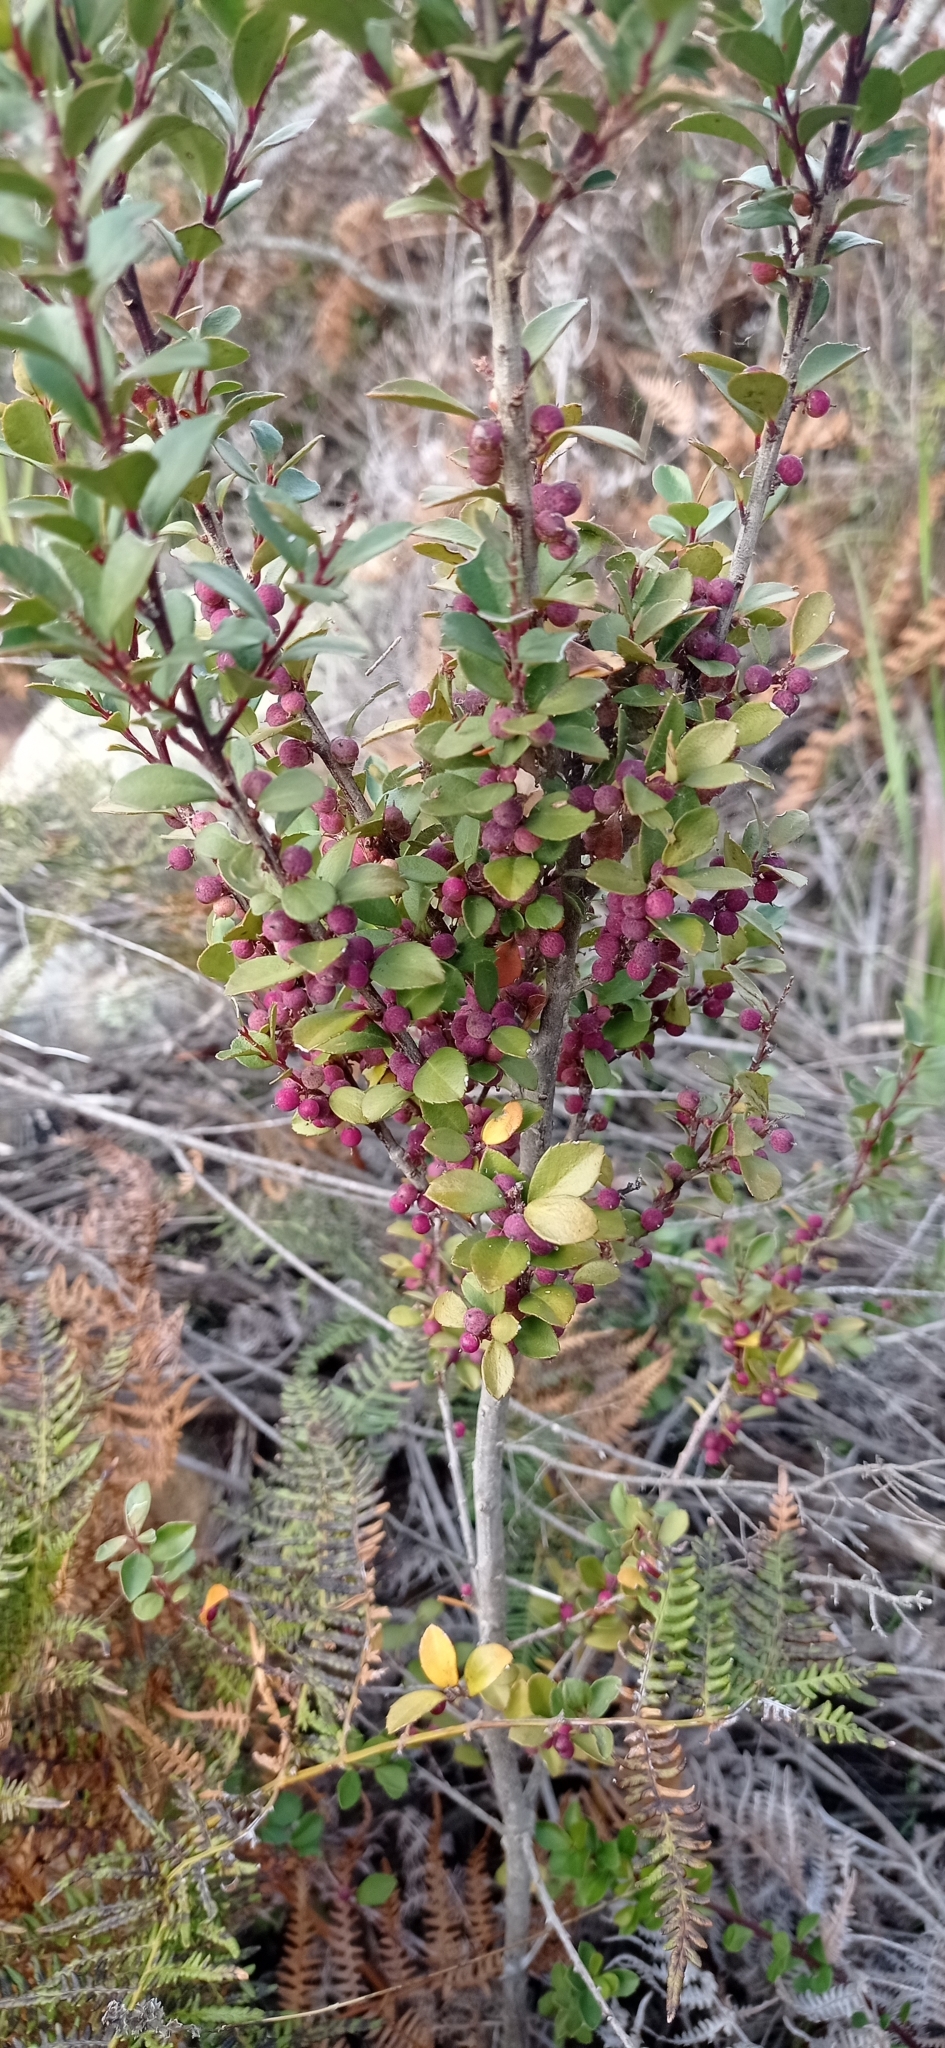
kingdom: Plantae
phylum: Tracheophyta
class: Magnoliopsida
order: Ericales
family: Primulaceae
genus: Myrsine
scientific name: Myrsine africana
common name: African-boxwood
